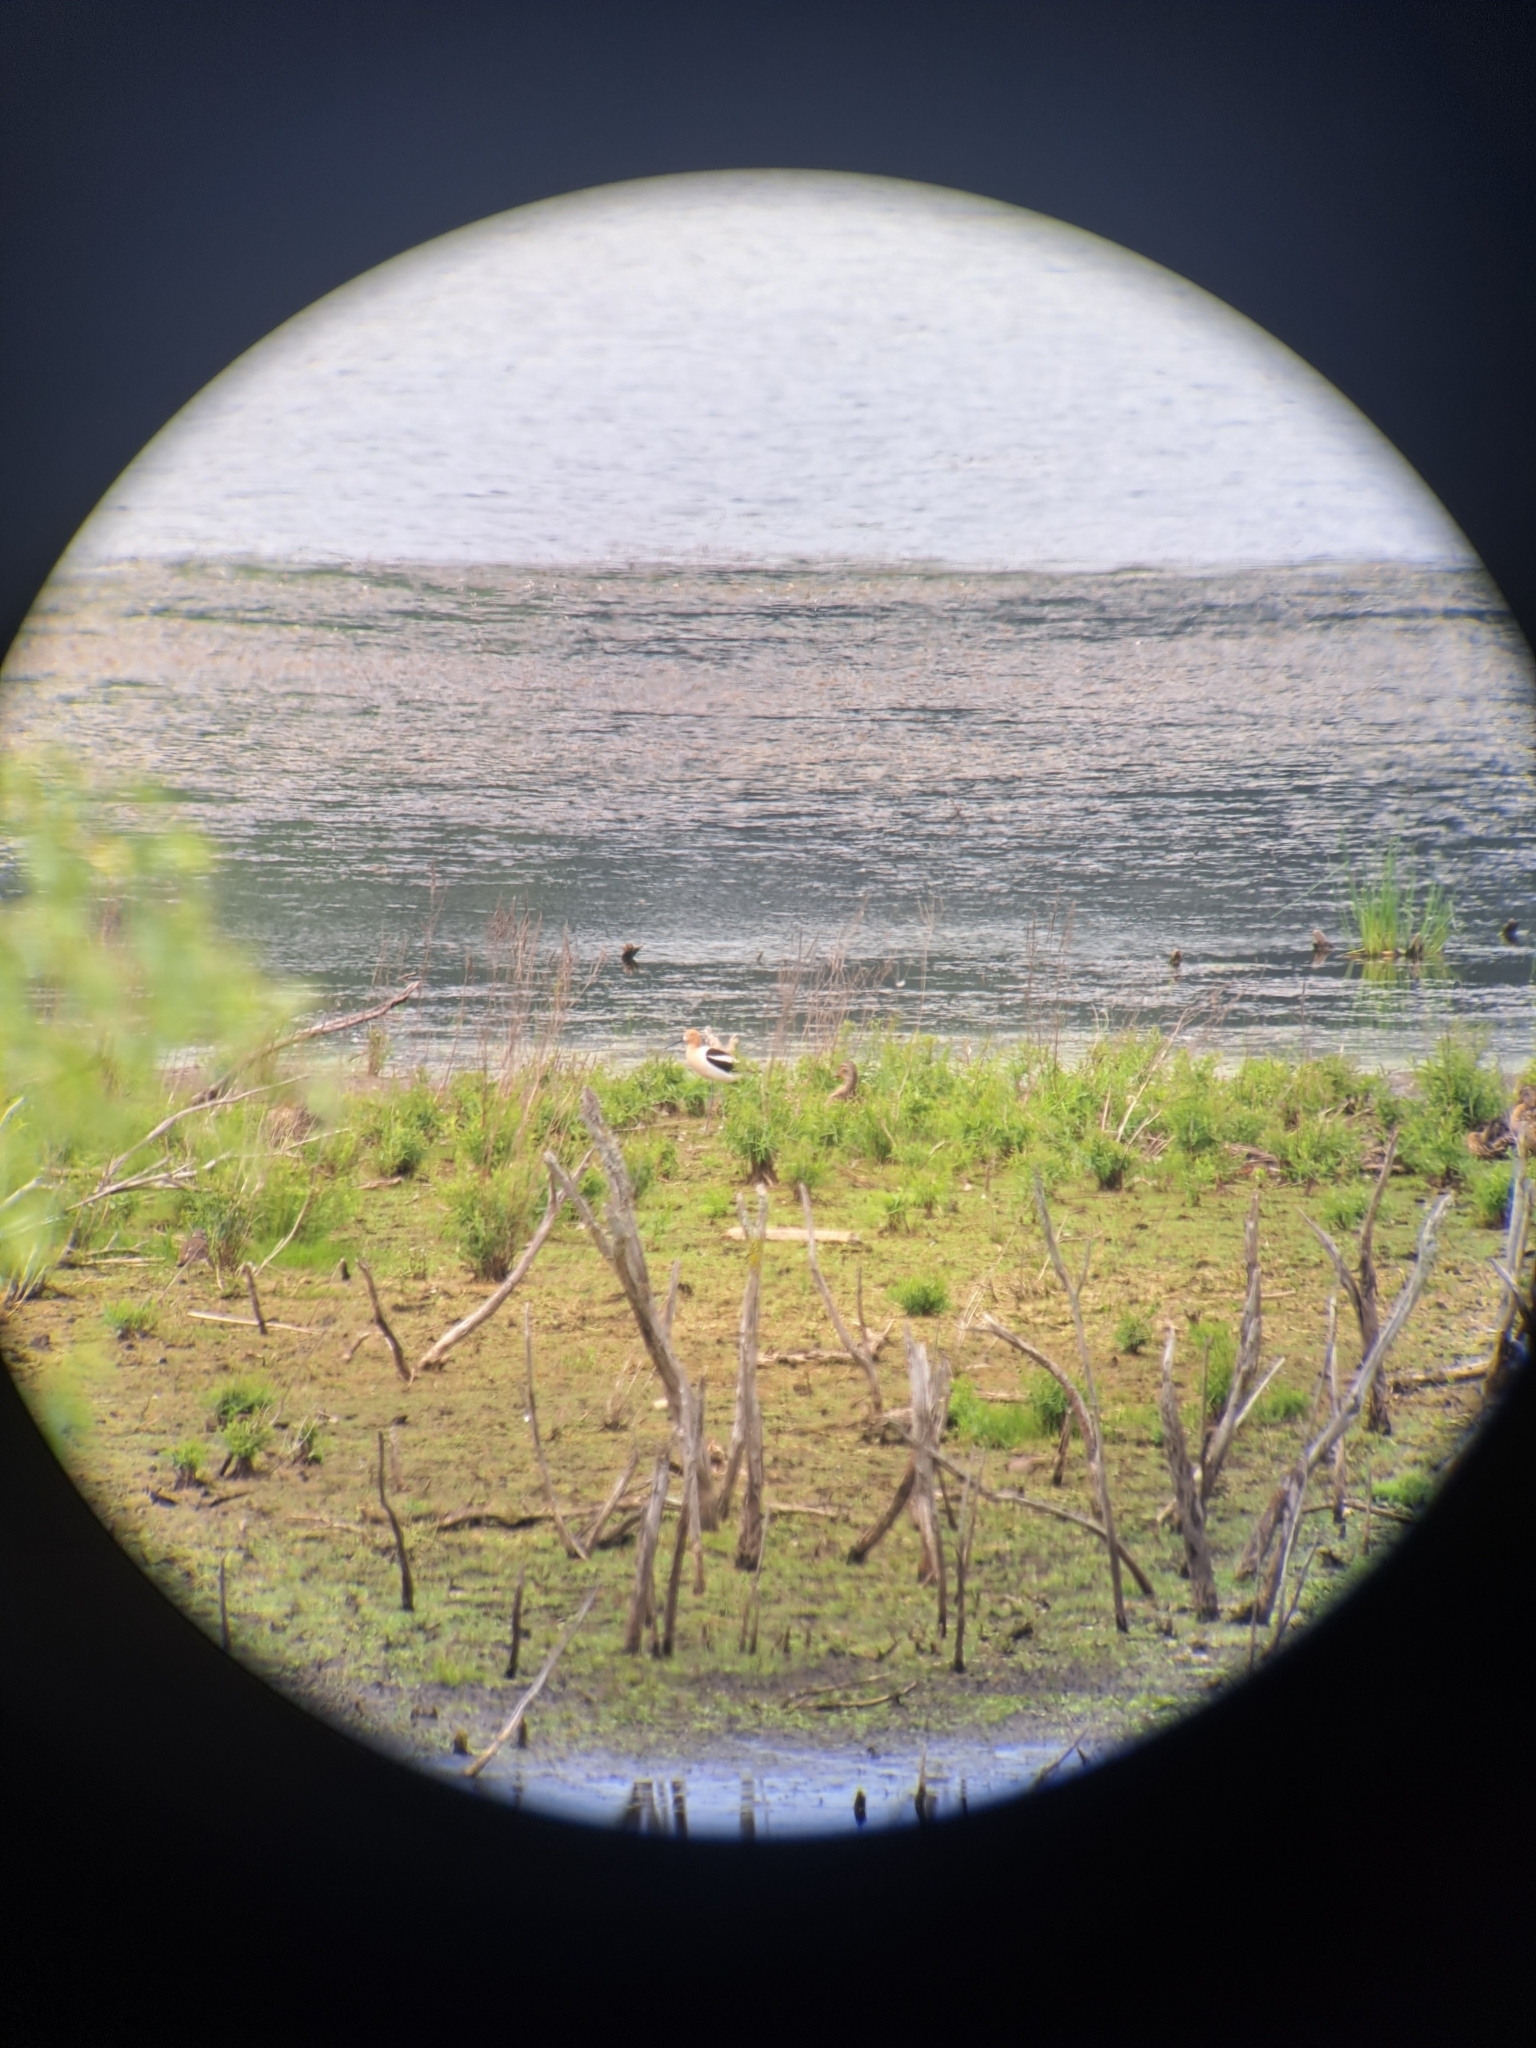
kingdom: Animalia
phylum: Chordata
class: Aves
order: Charadriiformes
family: Recurvirostridae
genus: Recurvirostra
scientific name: Recurvirostra americana
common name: American avocet
